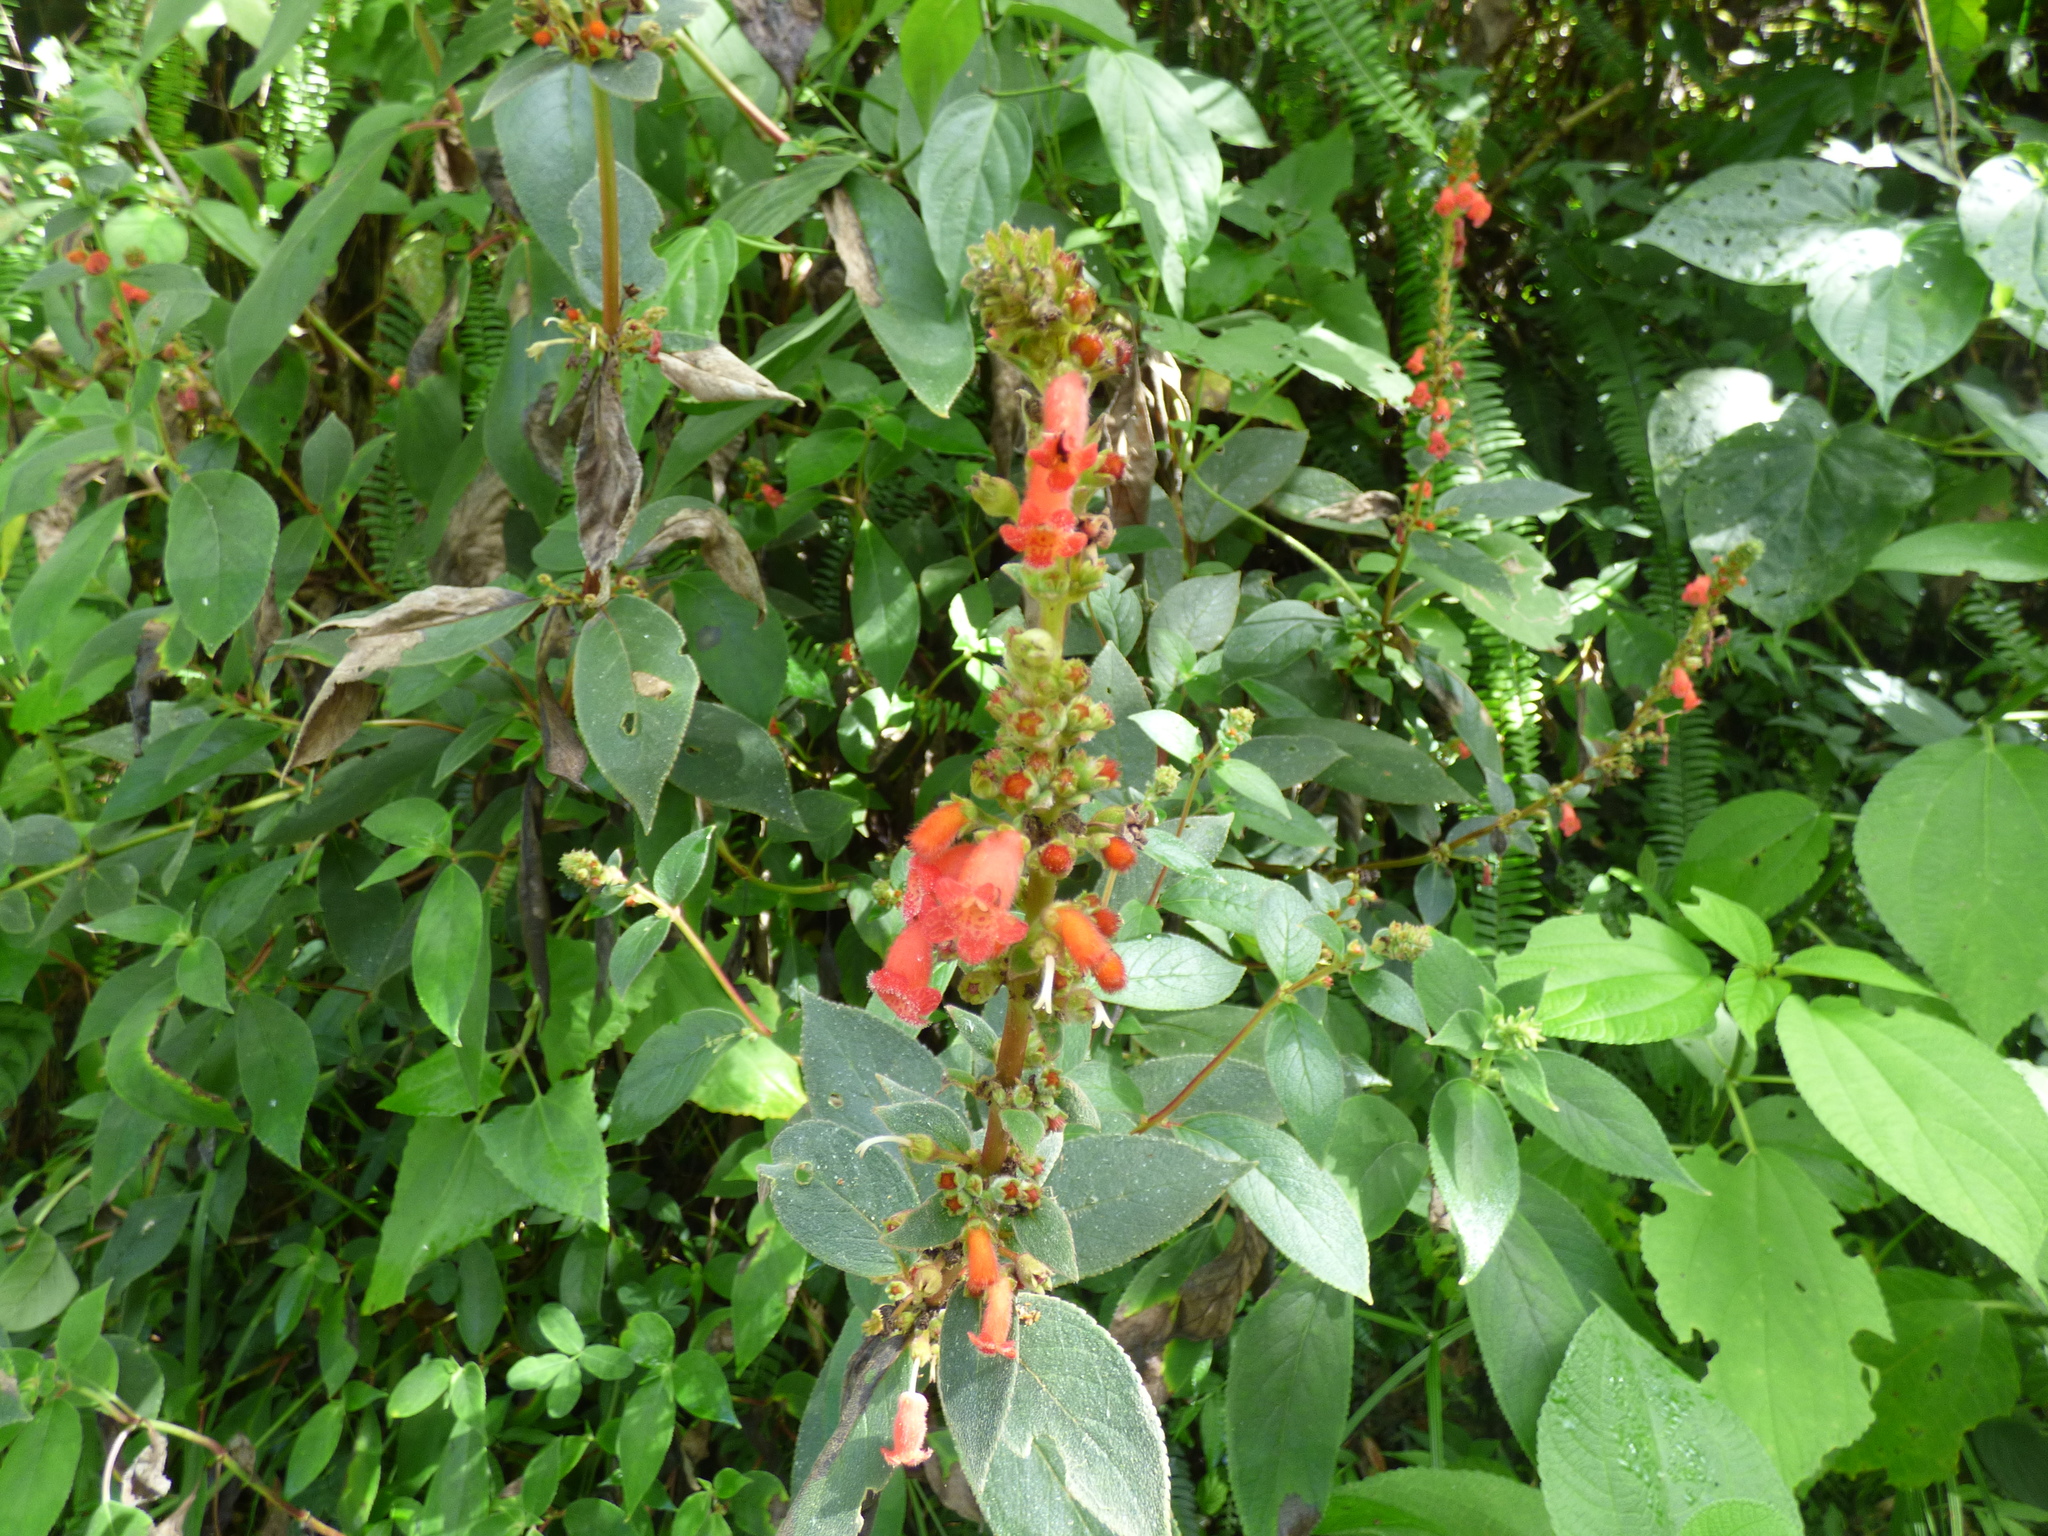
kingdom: Plantae
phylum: Tracheophyta
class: Magnoliopsida
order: Lamiales
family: Gesneriaceae
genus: Kohleria
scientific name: Kohleria spicata
